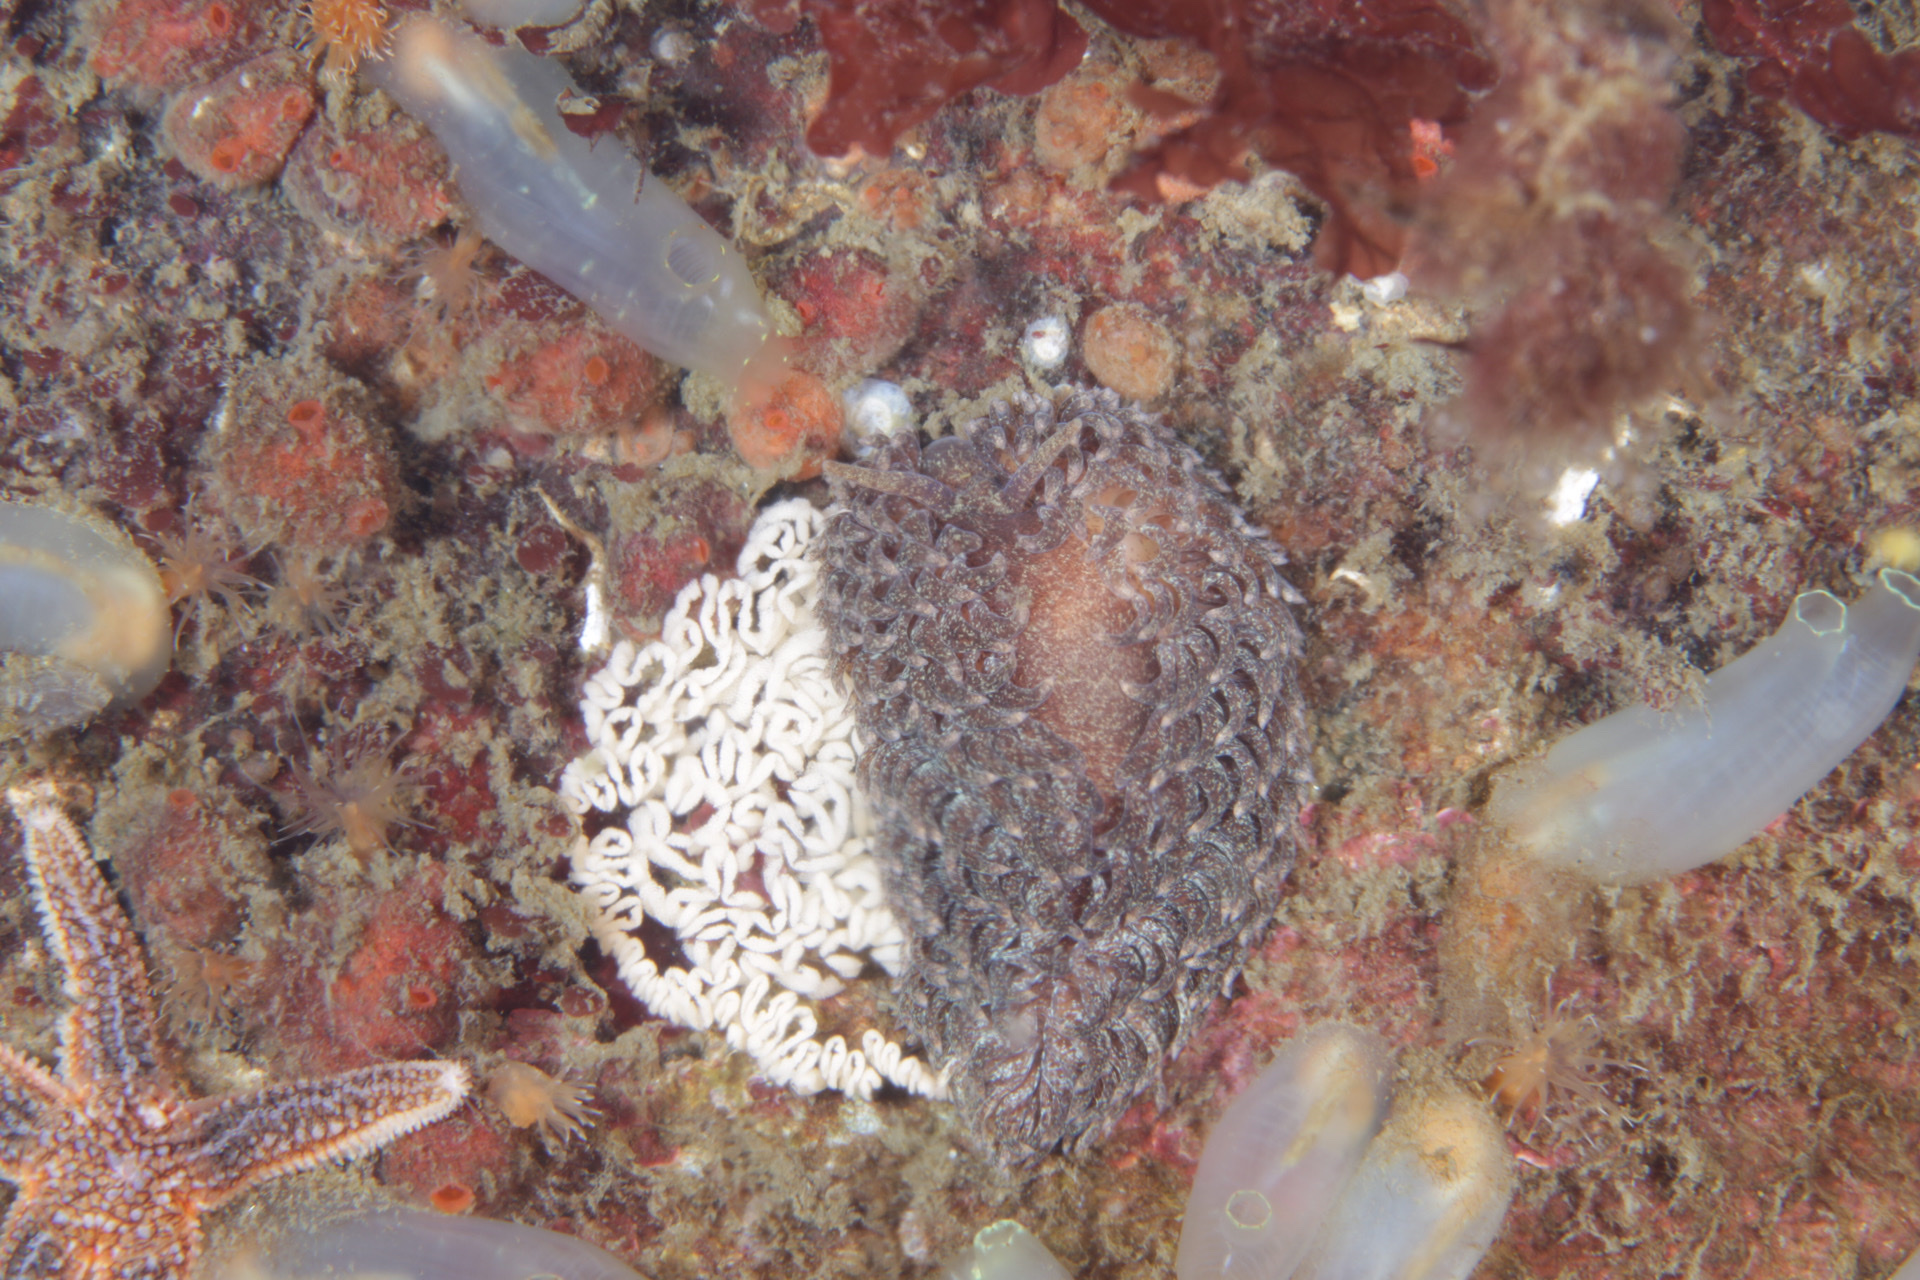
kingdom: Animalia
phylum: Mollusca
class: Gastropoda
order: Nudibranchia
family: Aeolidiidae
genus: Aeolidia
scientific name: Aeolidia papillosa
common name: Common grey sea slug
